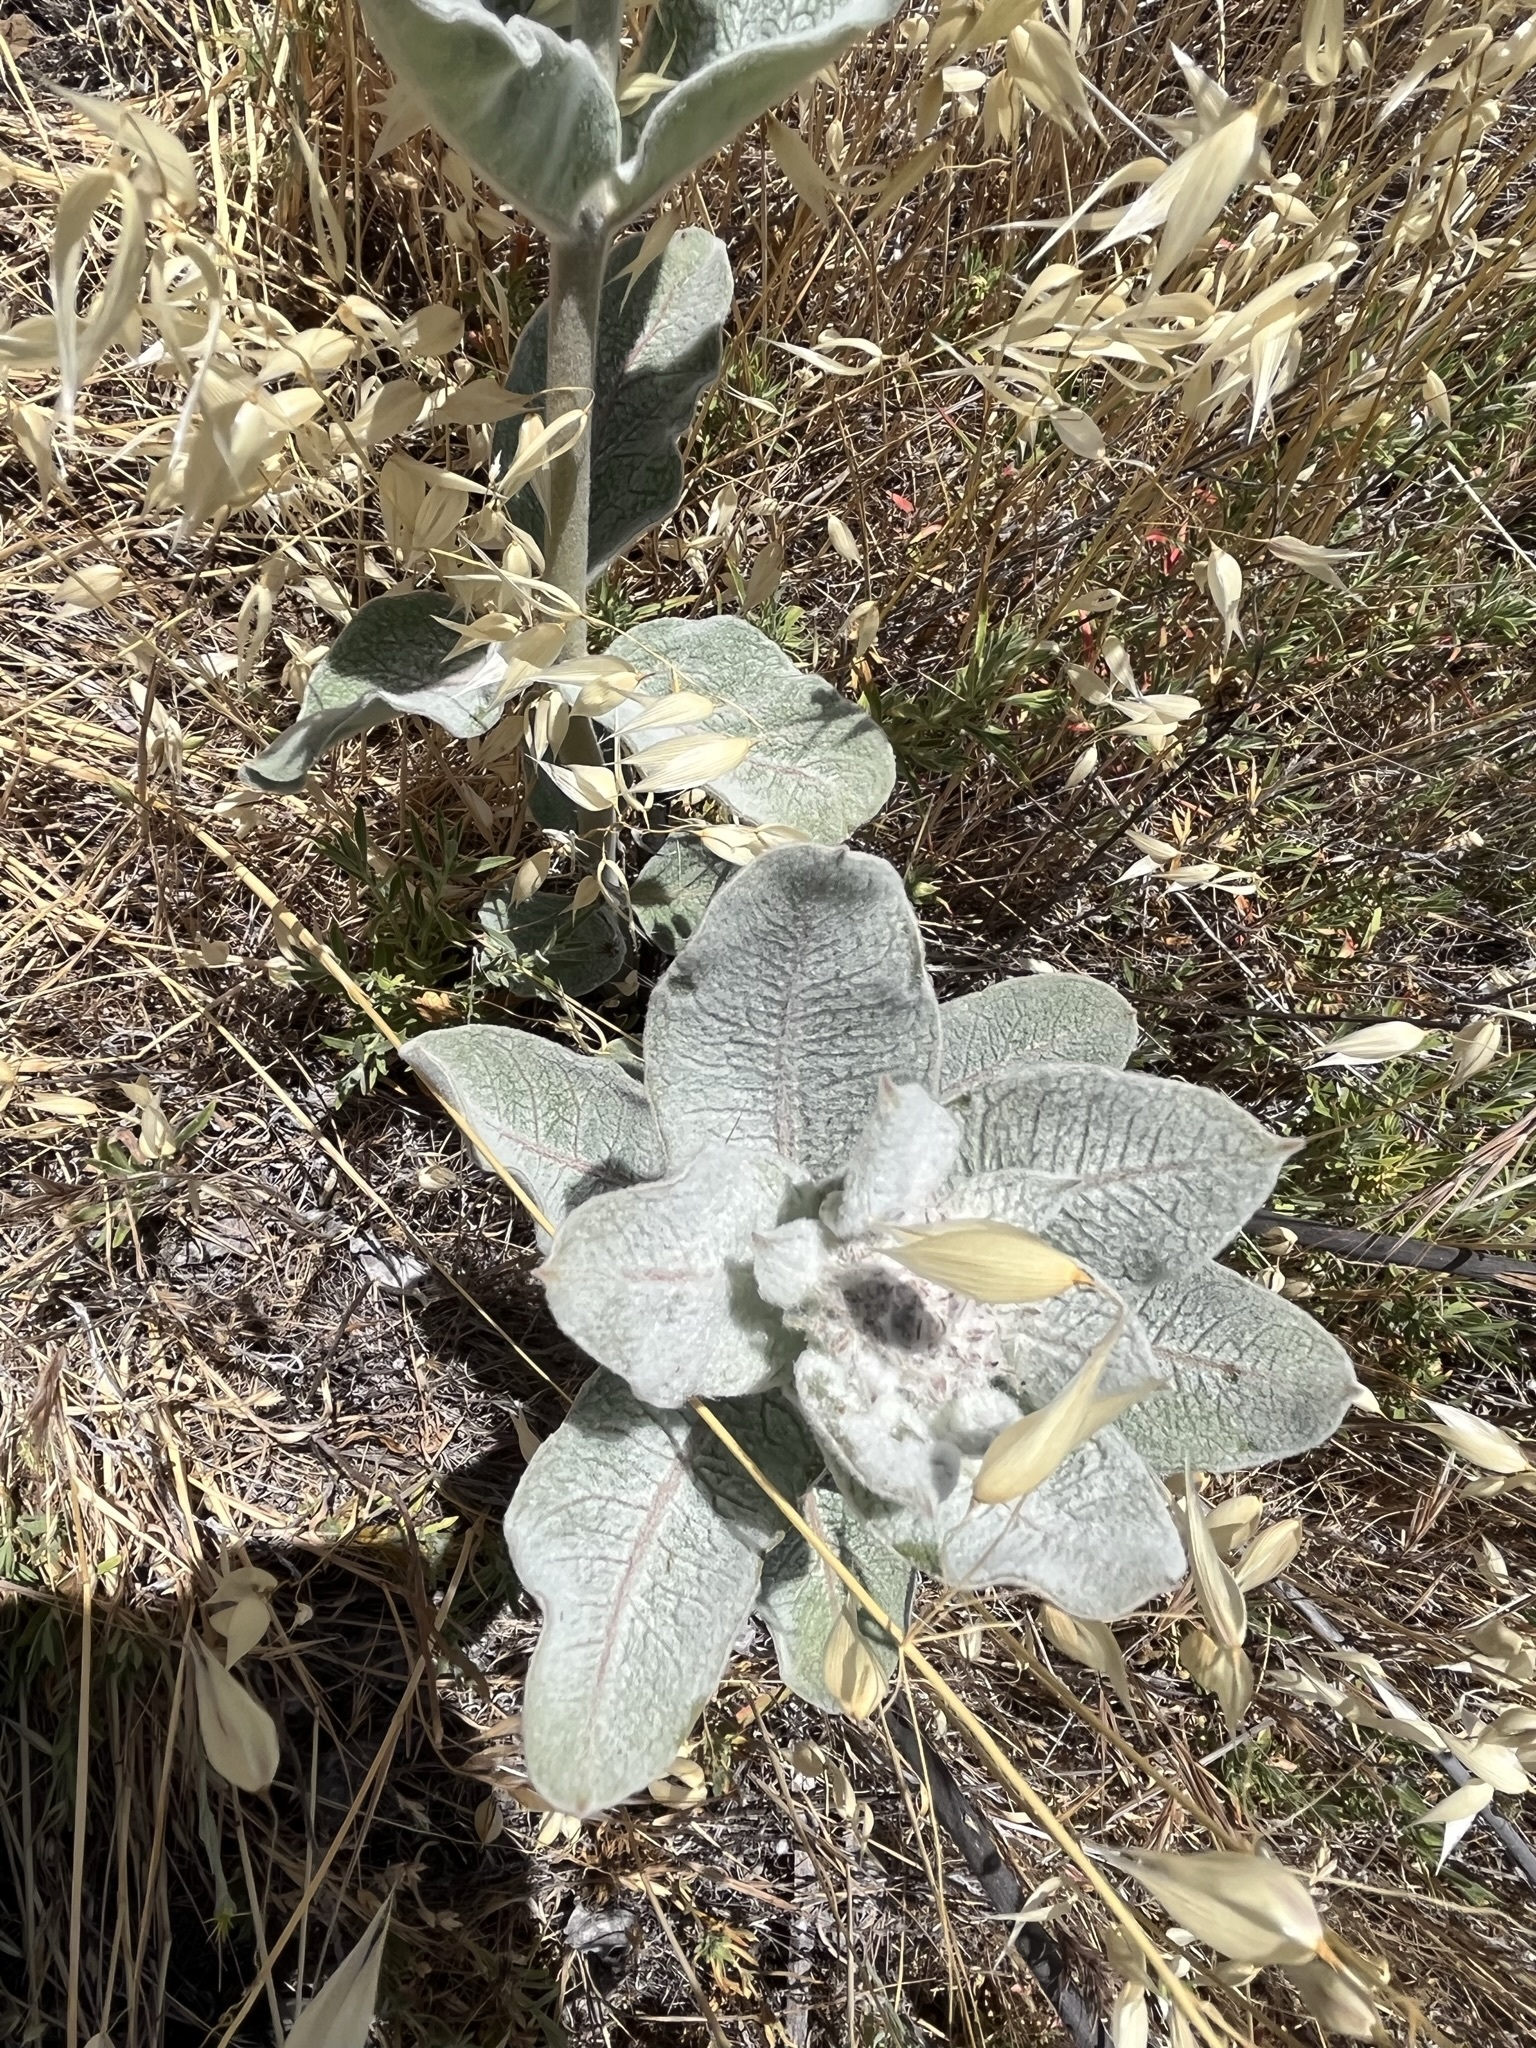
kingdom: Plantae
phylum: Tracheophyta
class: Magnoliopsida
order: Gentianales
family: Apocynaceae
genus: Asclepias
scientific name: Asclepias eriocarpa
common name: Indian milkweed
